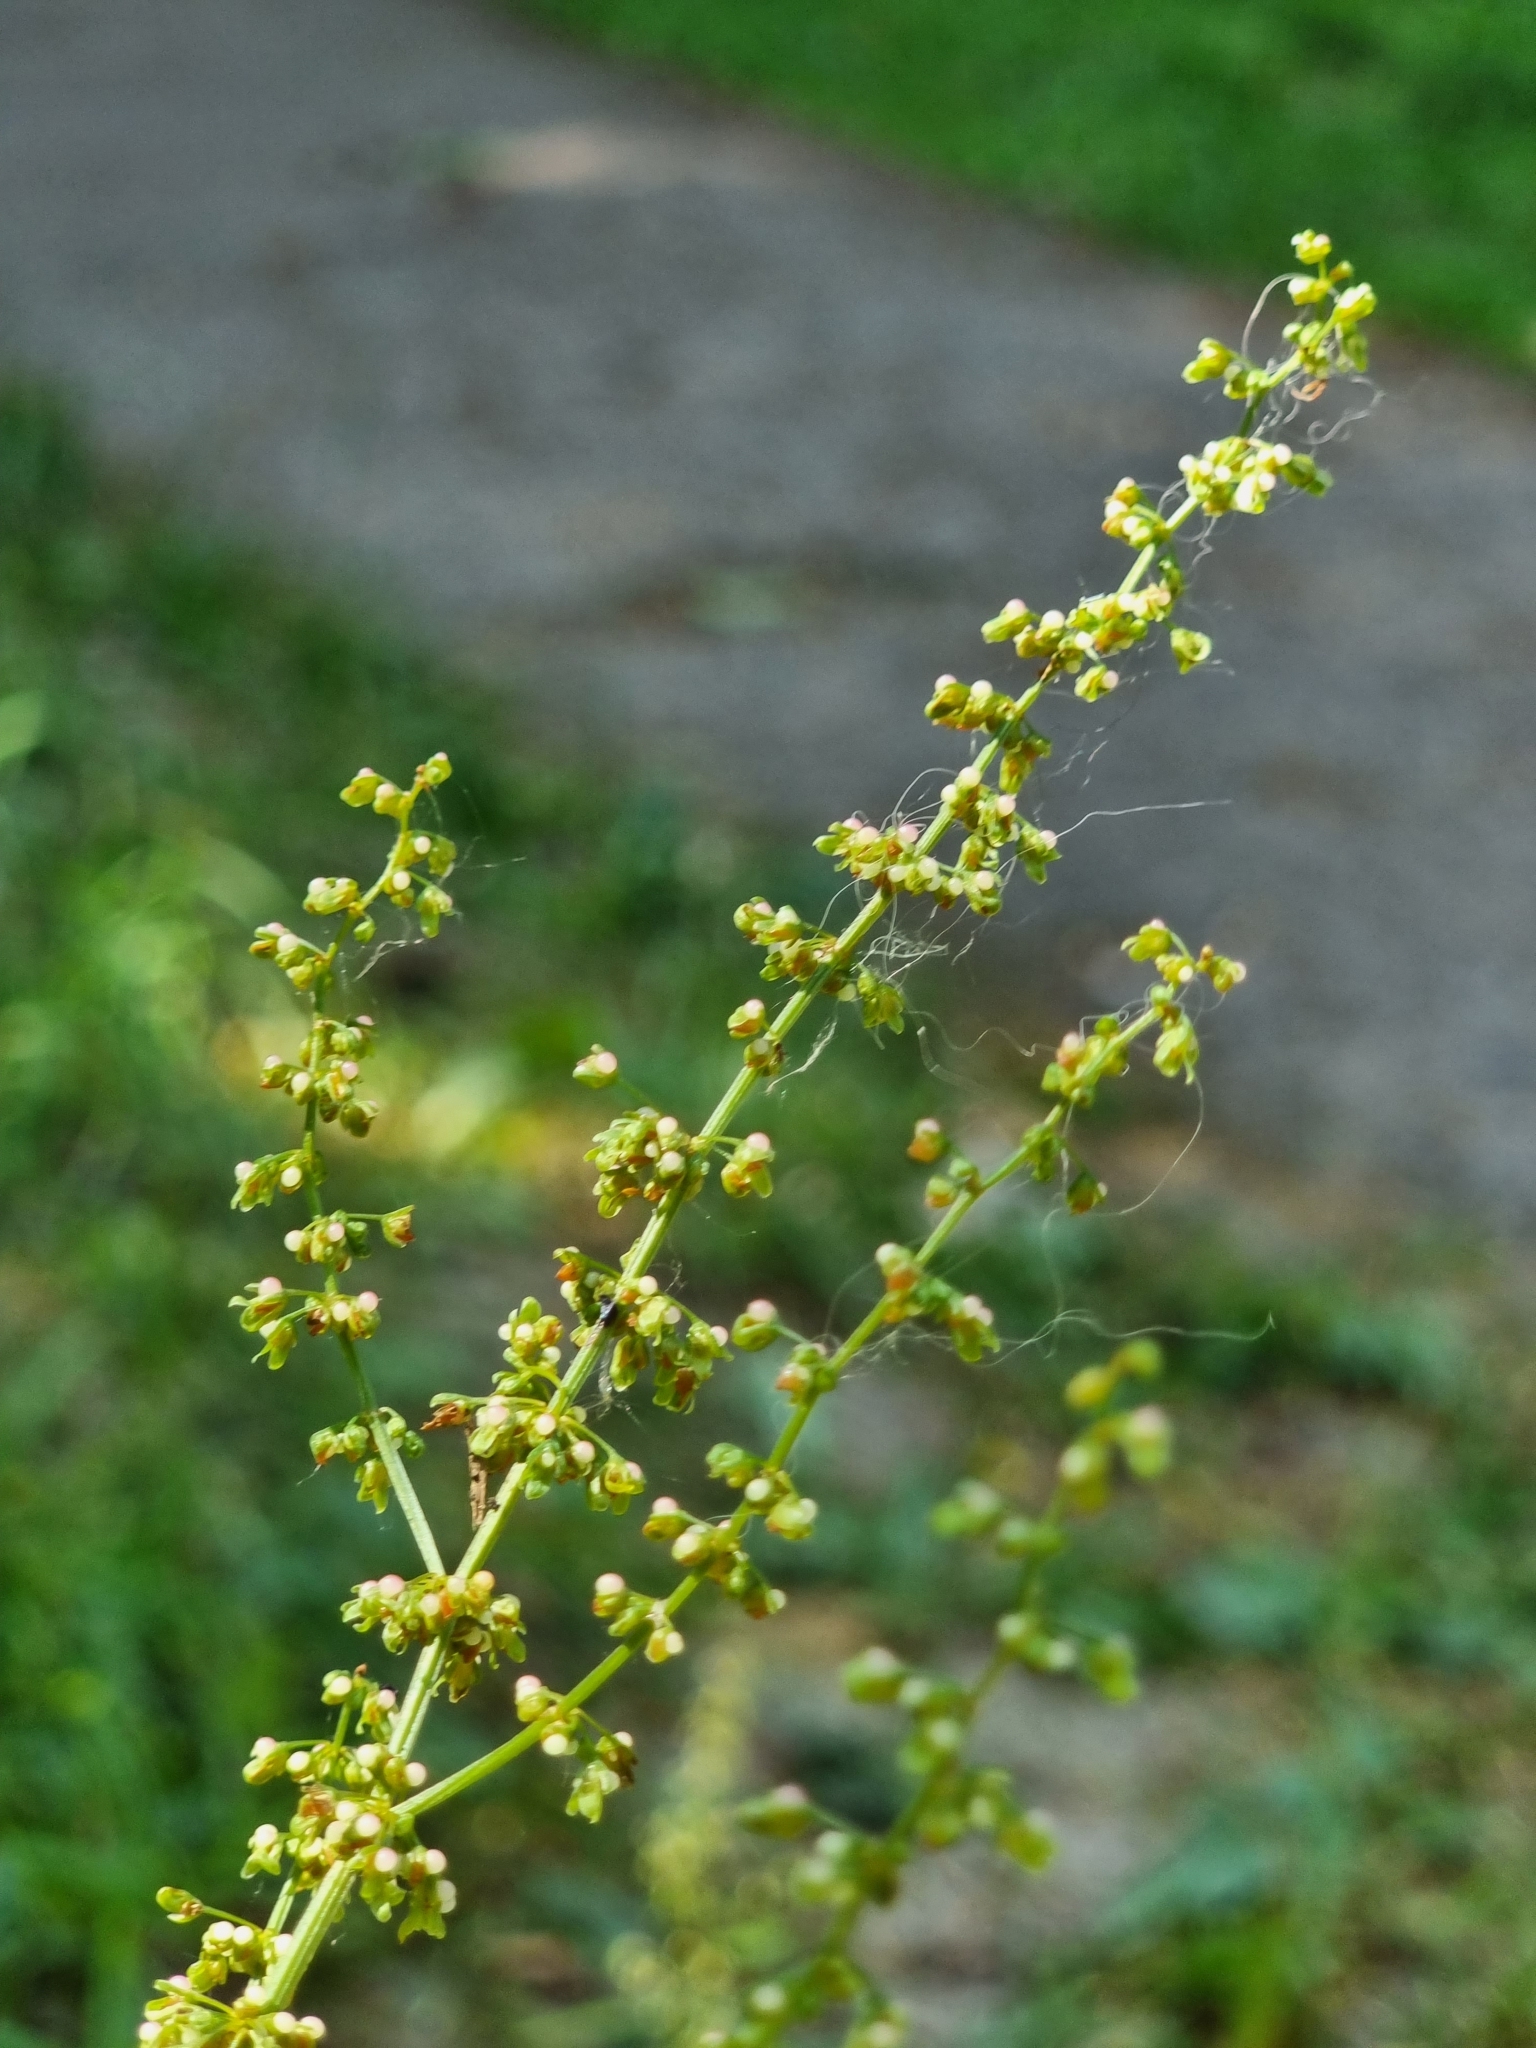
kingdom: Plantae
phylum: Tracheophyta
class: Magnoliopsida
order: Caryophyllales
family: Polygonaceae
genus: Rumex
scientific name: Rumex sanguineus
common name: Wood dock
